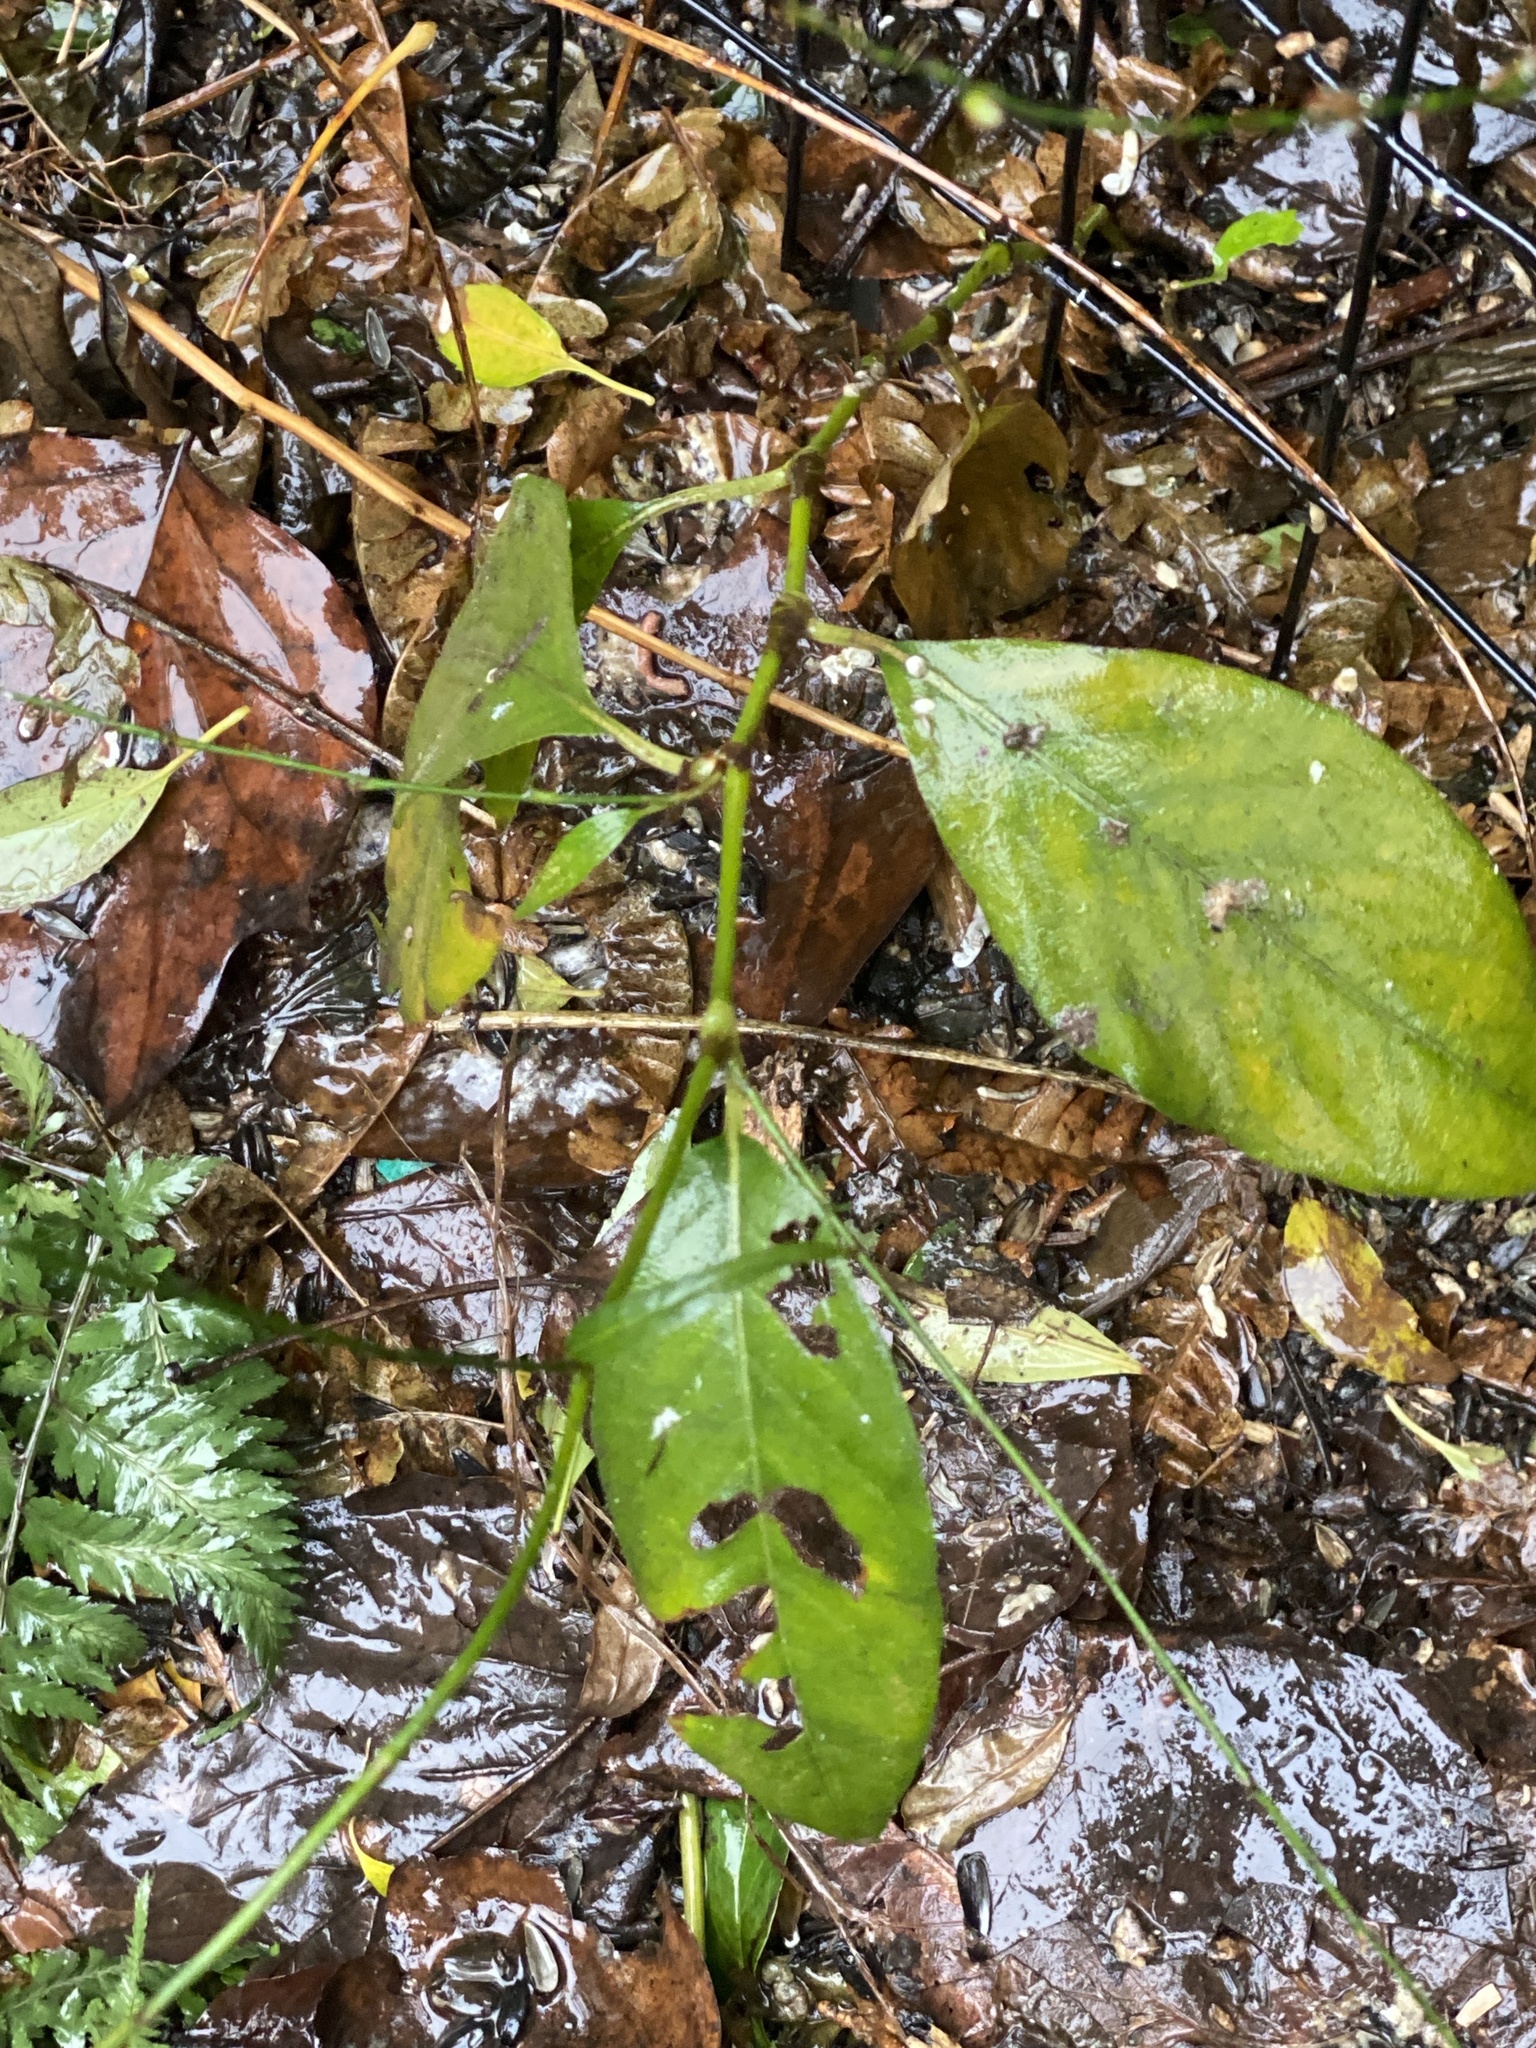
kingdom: Plantae
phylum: Tracheophyta
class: Magnoliopsida
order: Caryophyllales
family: Polygonaceae
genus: Persicaria
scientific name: Persicaria virginiana
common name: Jumpseed
